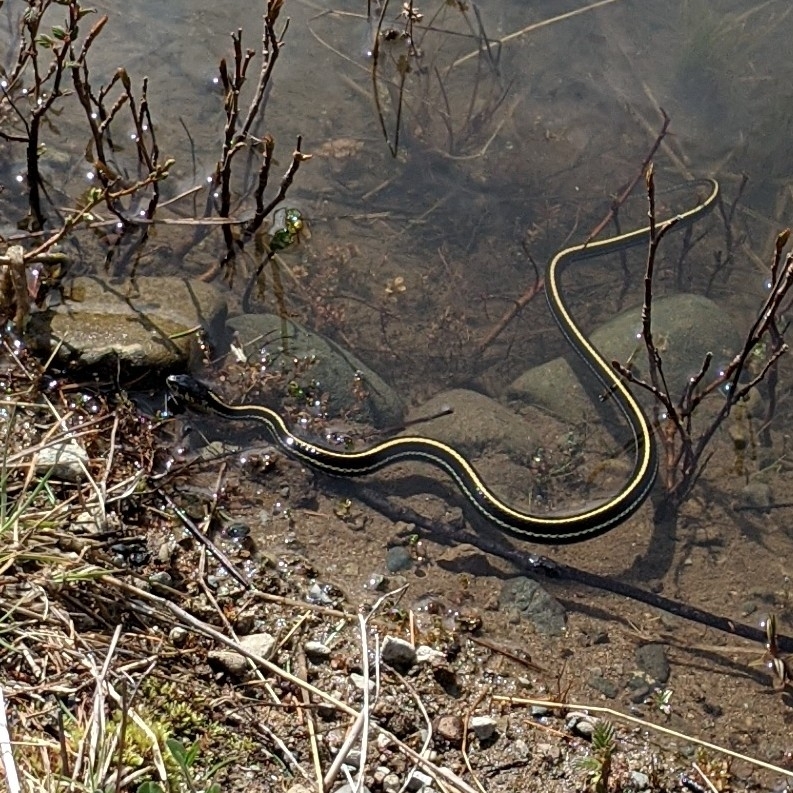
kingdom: Animalia
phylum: Chordata
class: Squamata
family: Colubridae
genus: Thamnophis
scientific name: Thamnophis sirtalis
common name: Common garter snake
